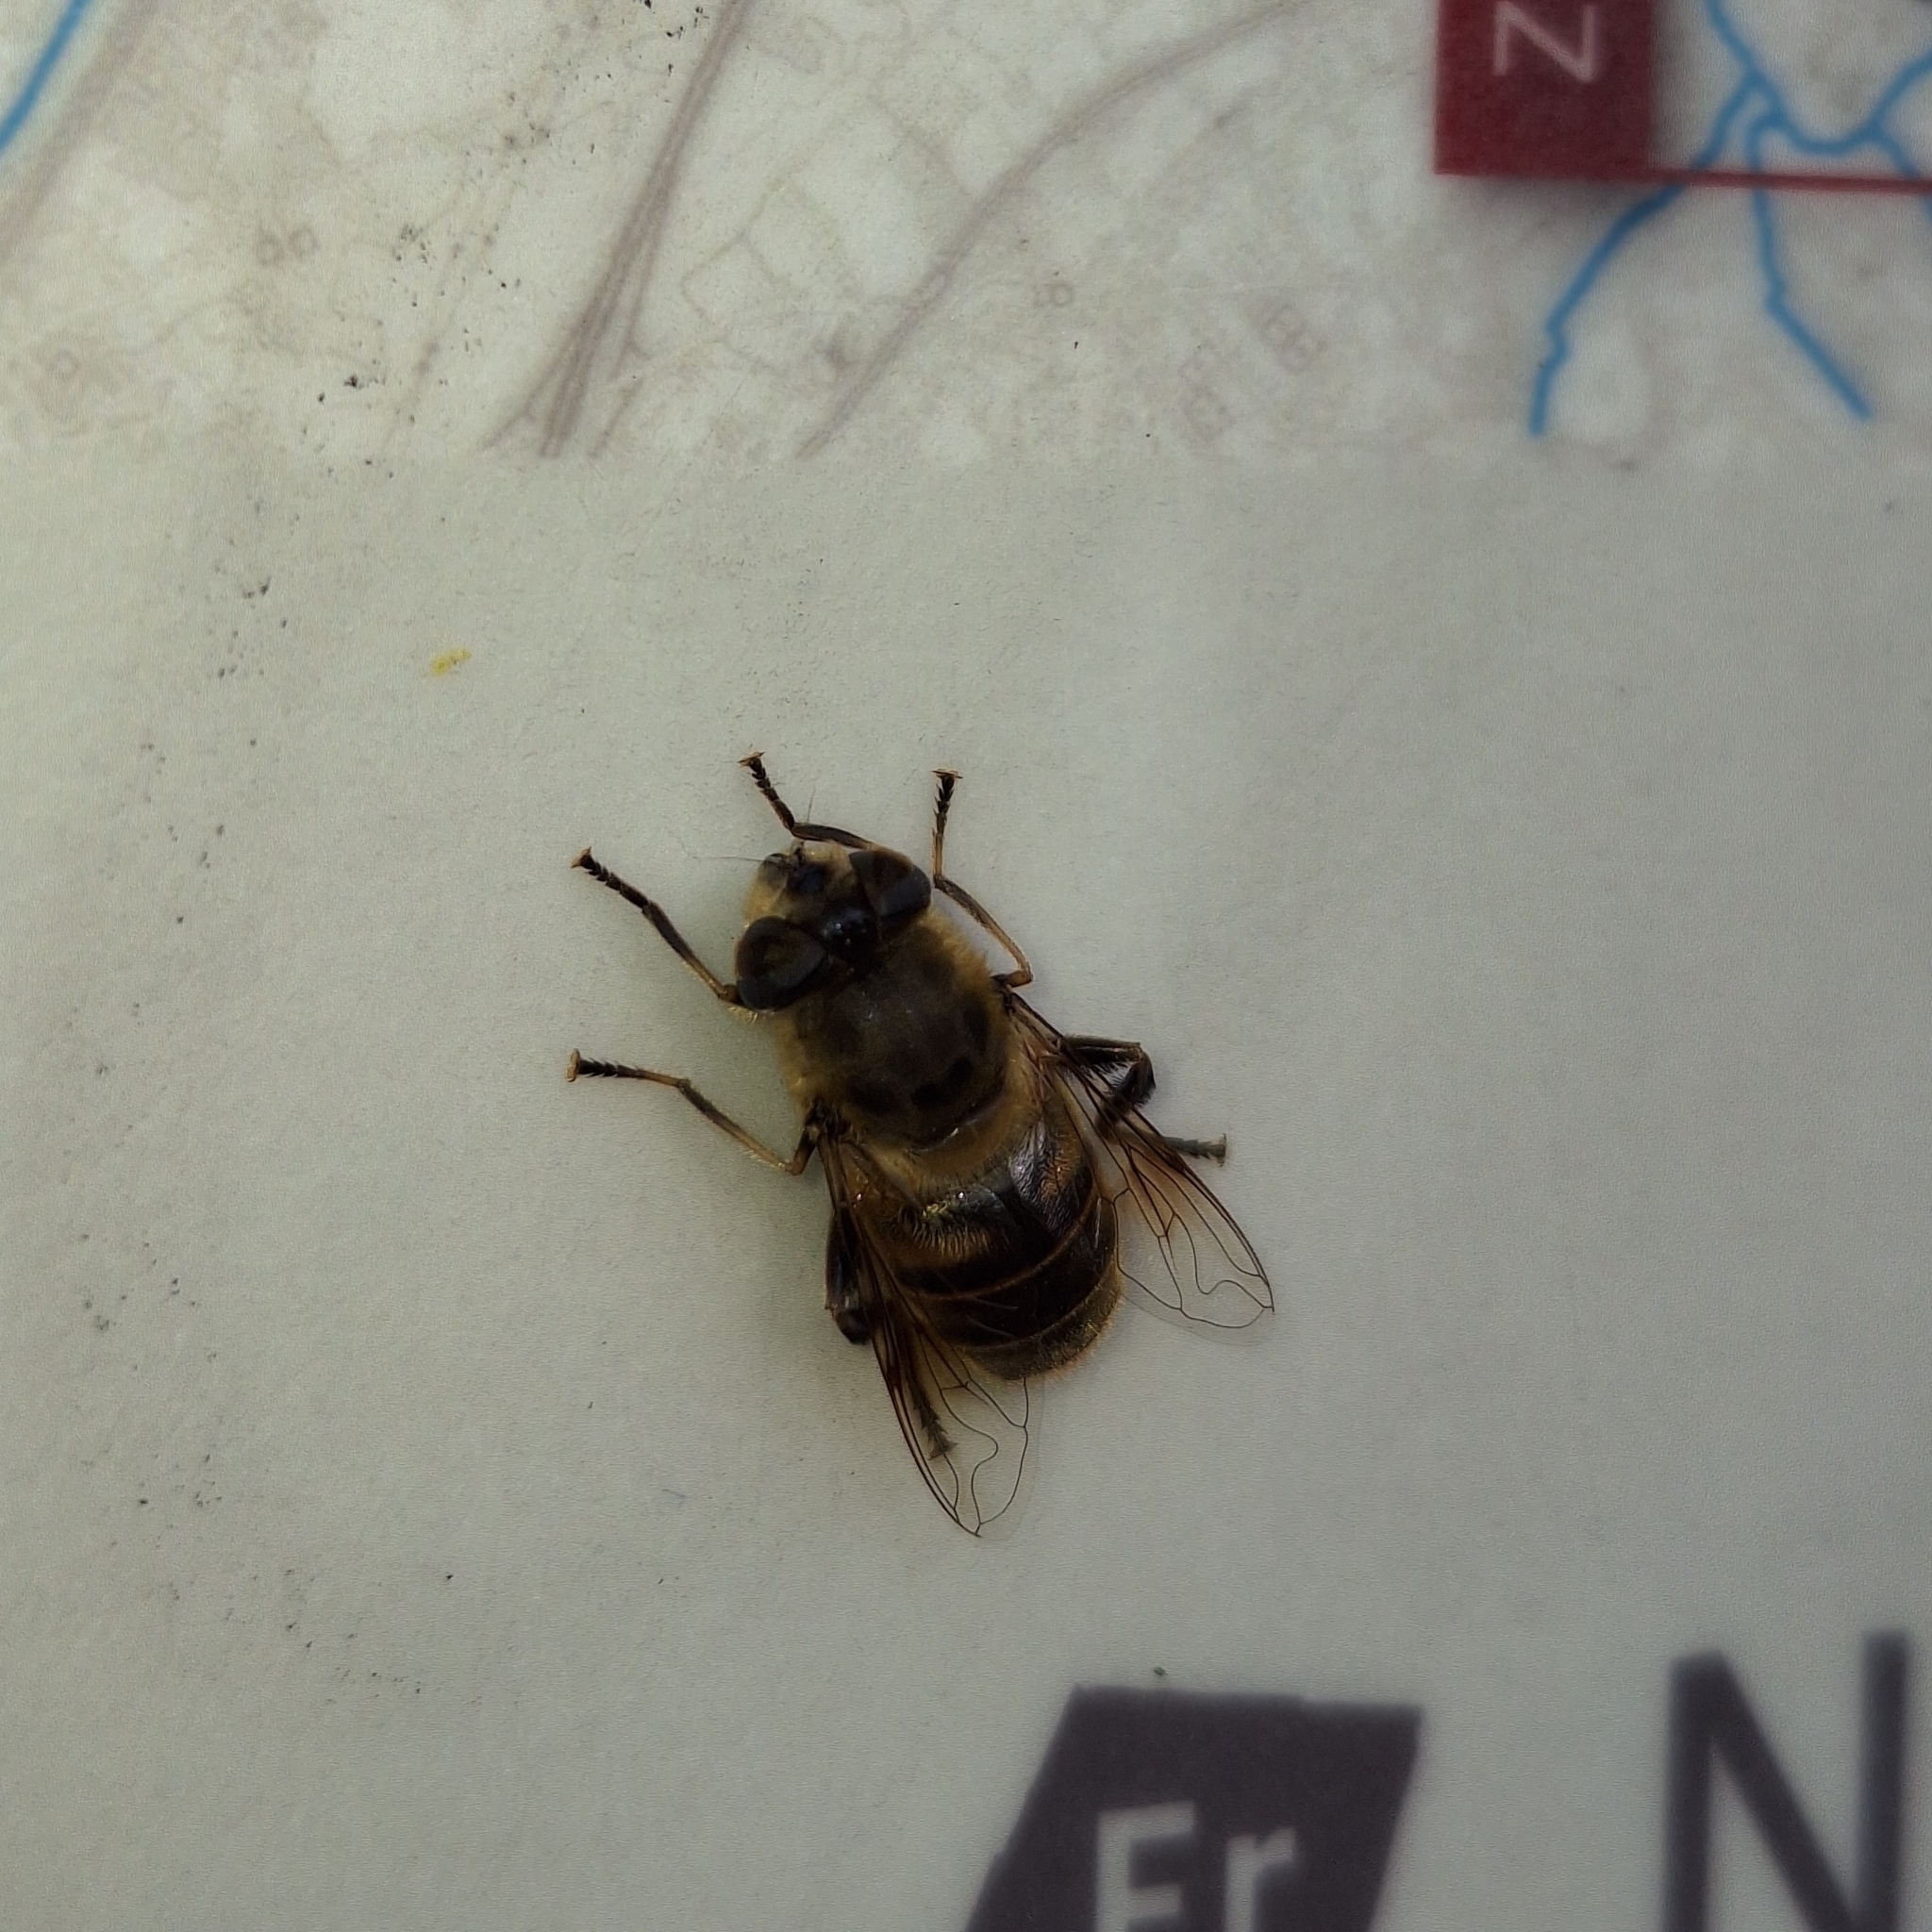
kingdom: Animalia
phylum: Arthropoda
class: Insecta
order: Diptera
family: Syrphidae
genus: Eristalis
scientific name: Eristalis tenax
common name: Drone fly
